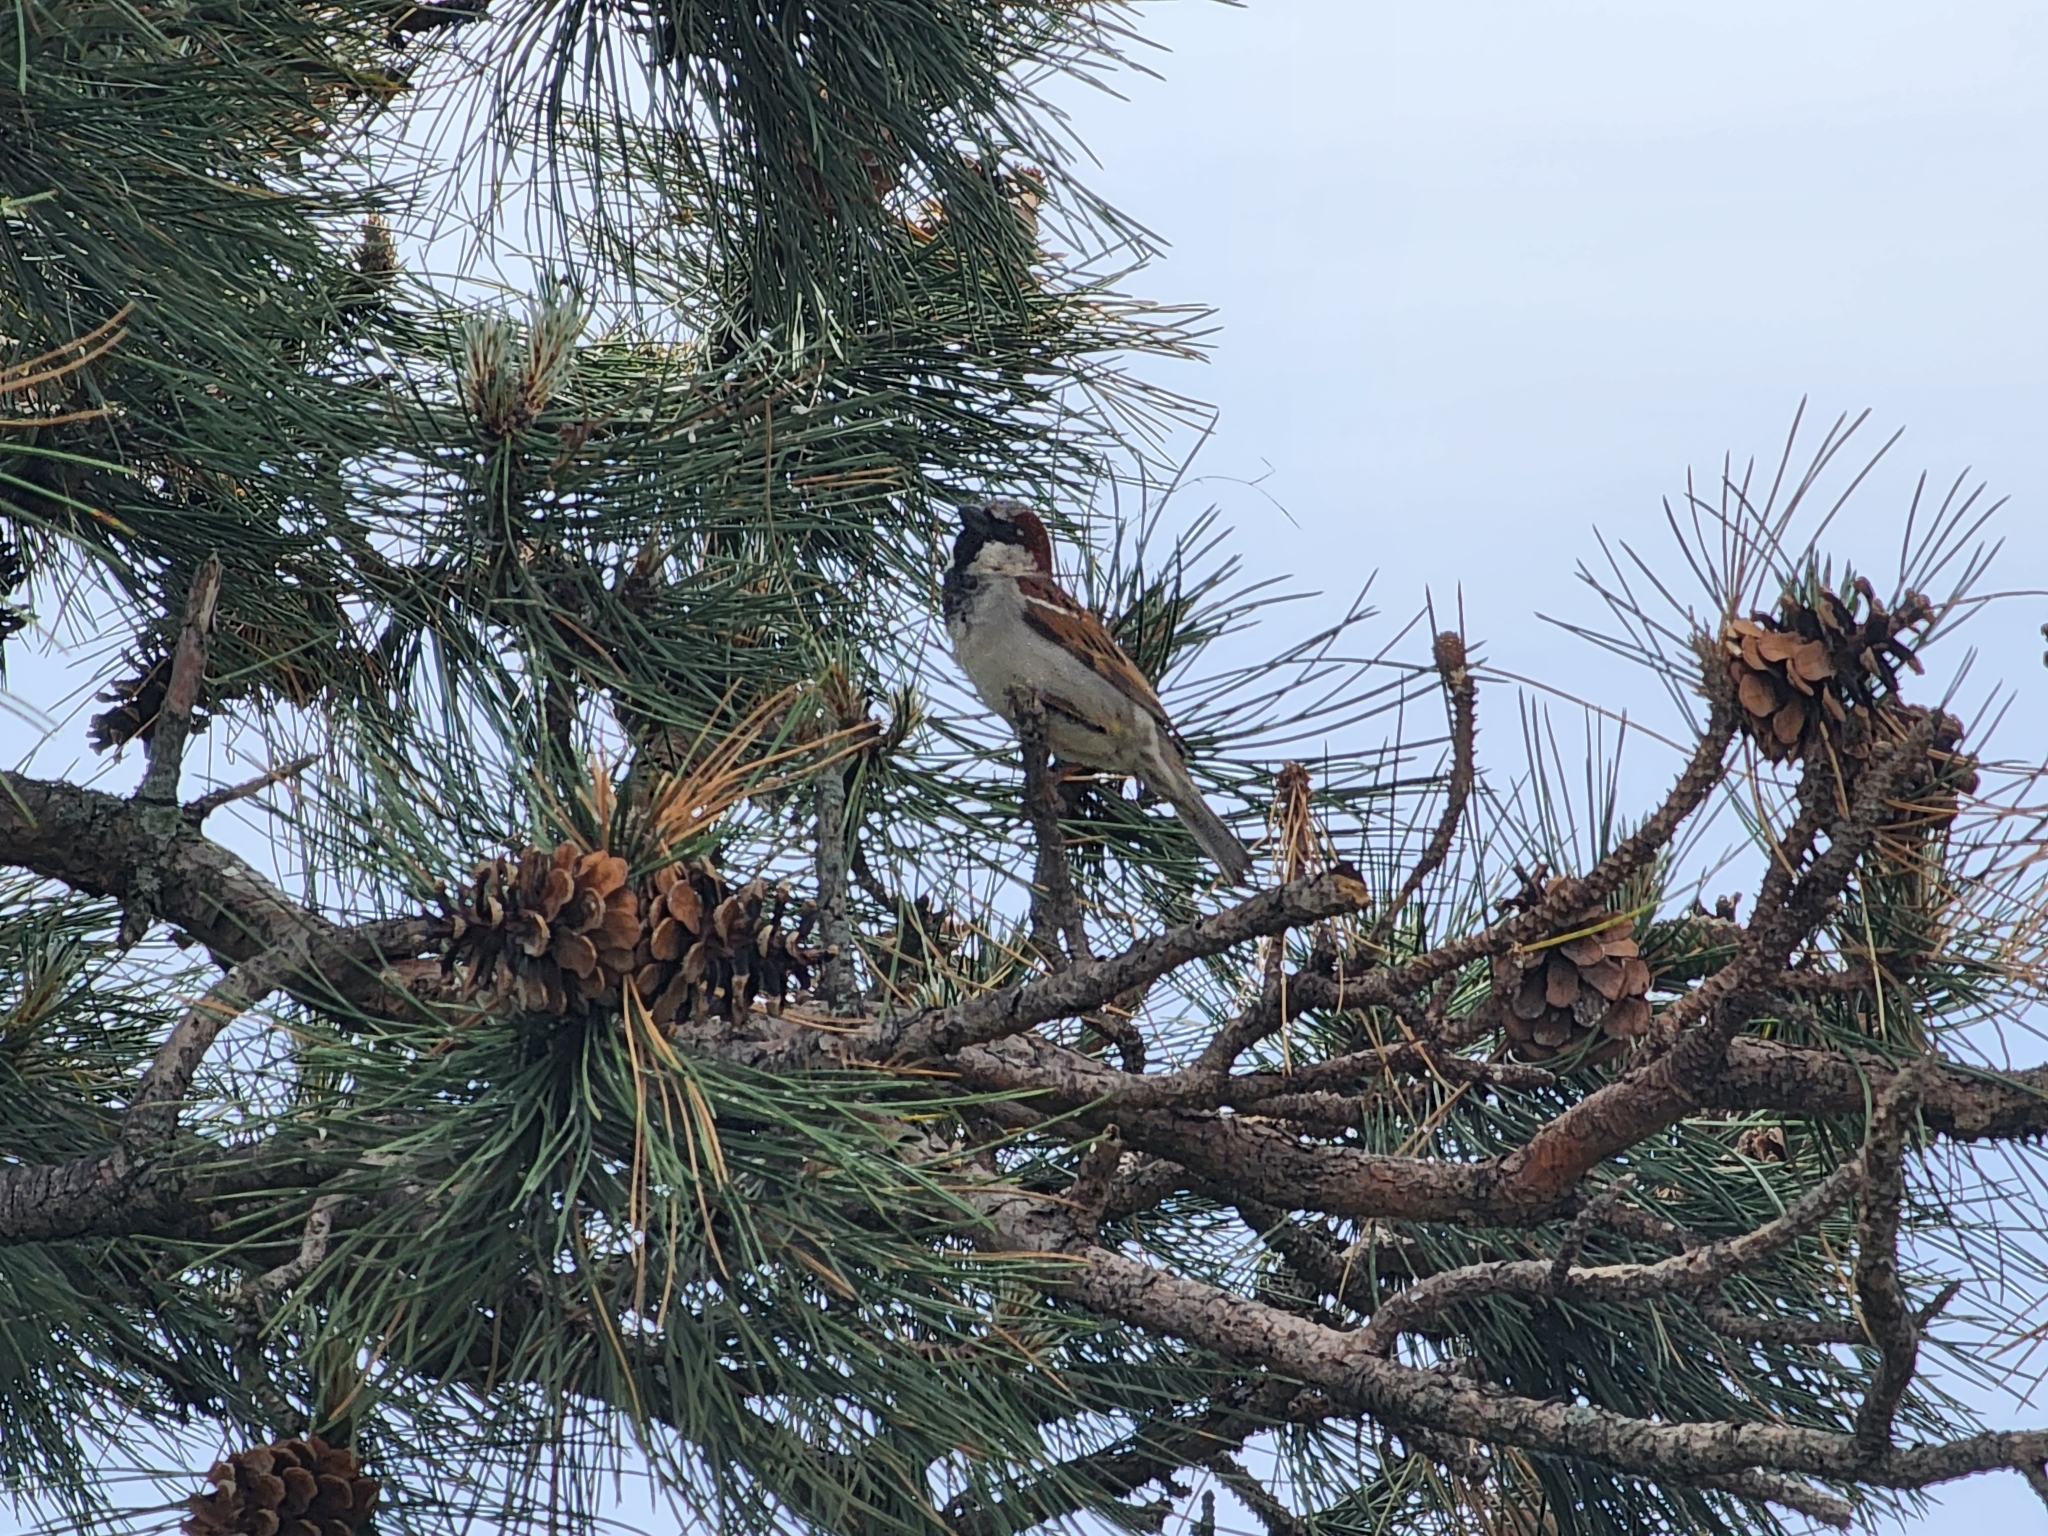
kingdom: Animalia
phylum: Chordata
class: Aves
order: Passeriformes
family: Passeridae
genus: Passer
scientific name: Passer domesticus
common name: House sparrow
